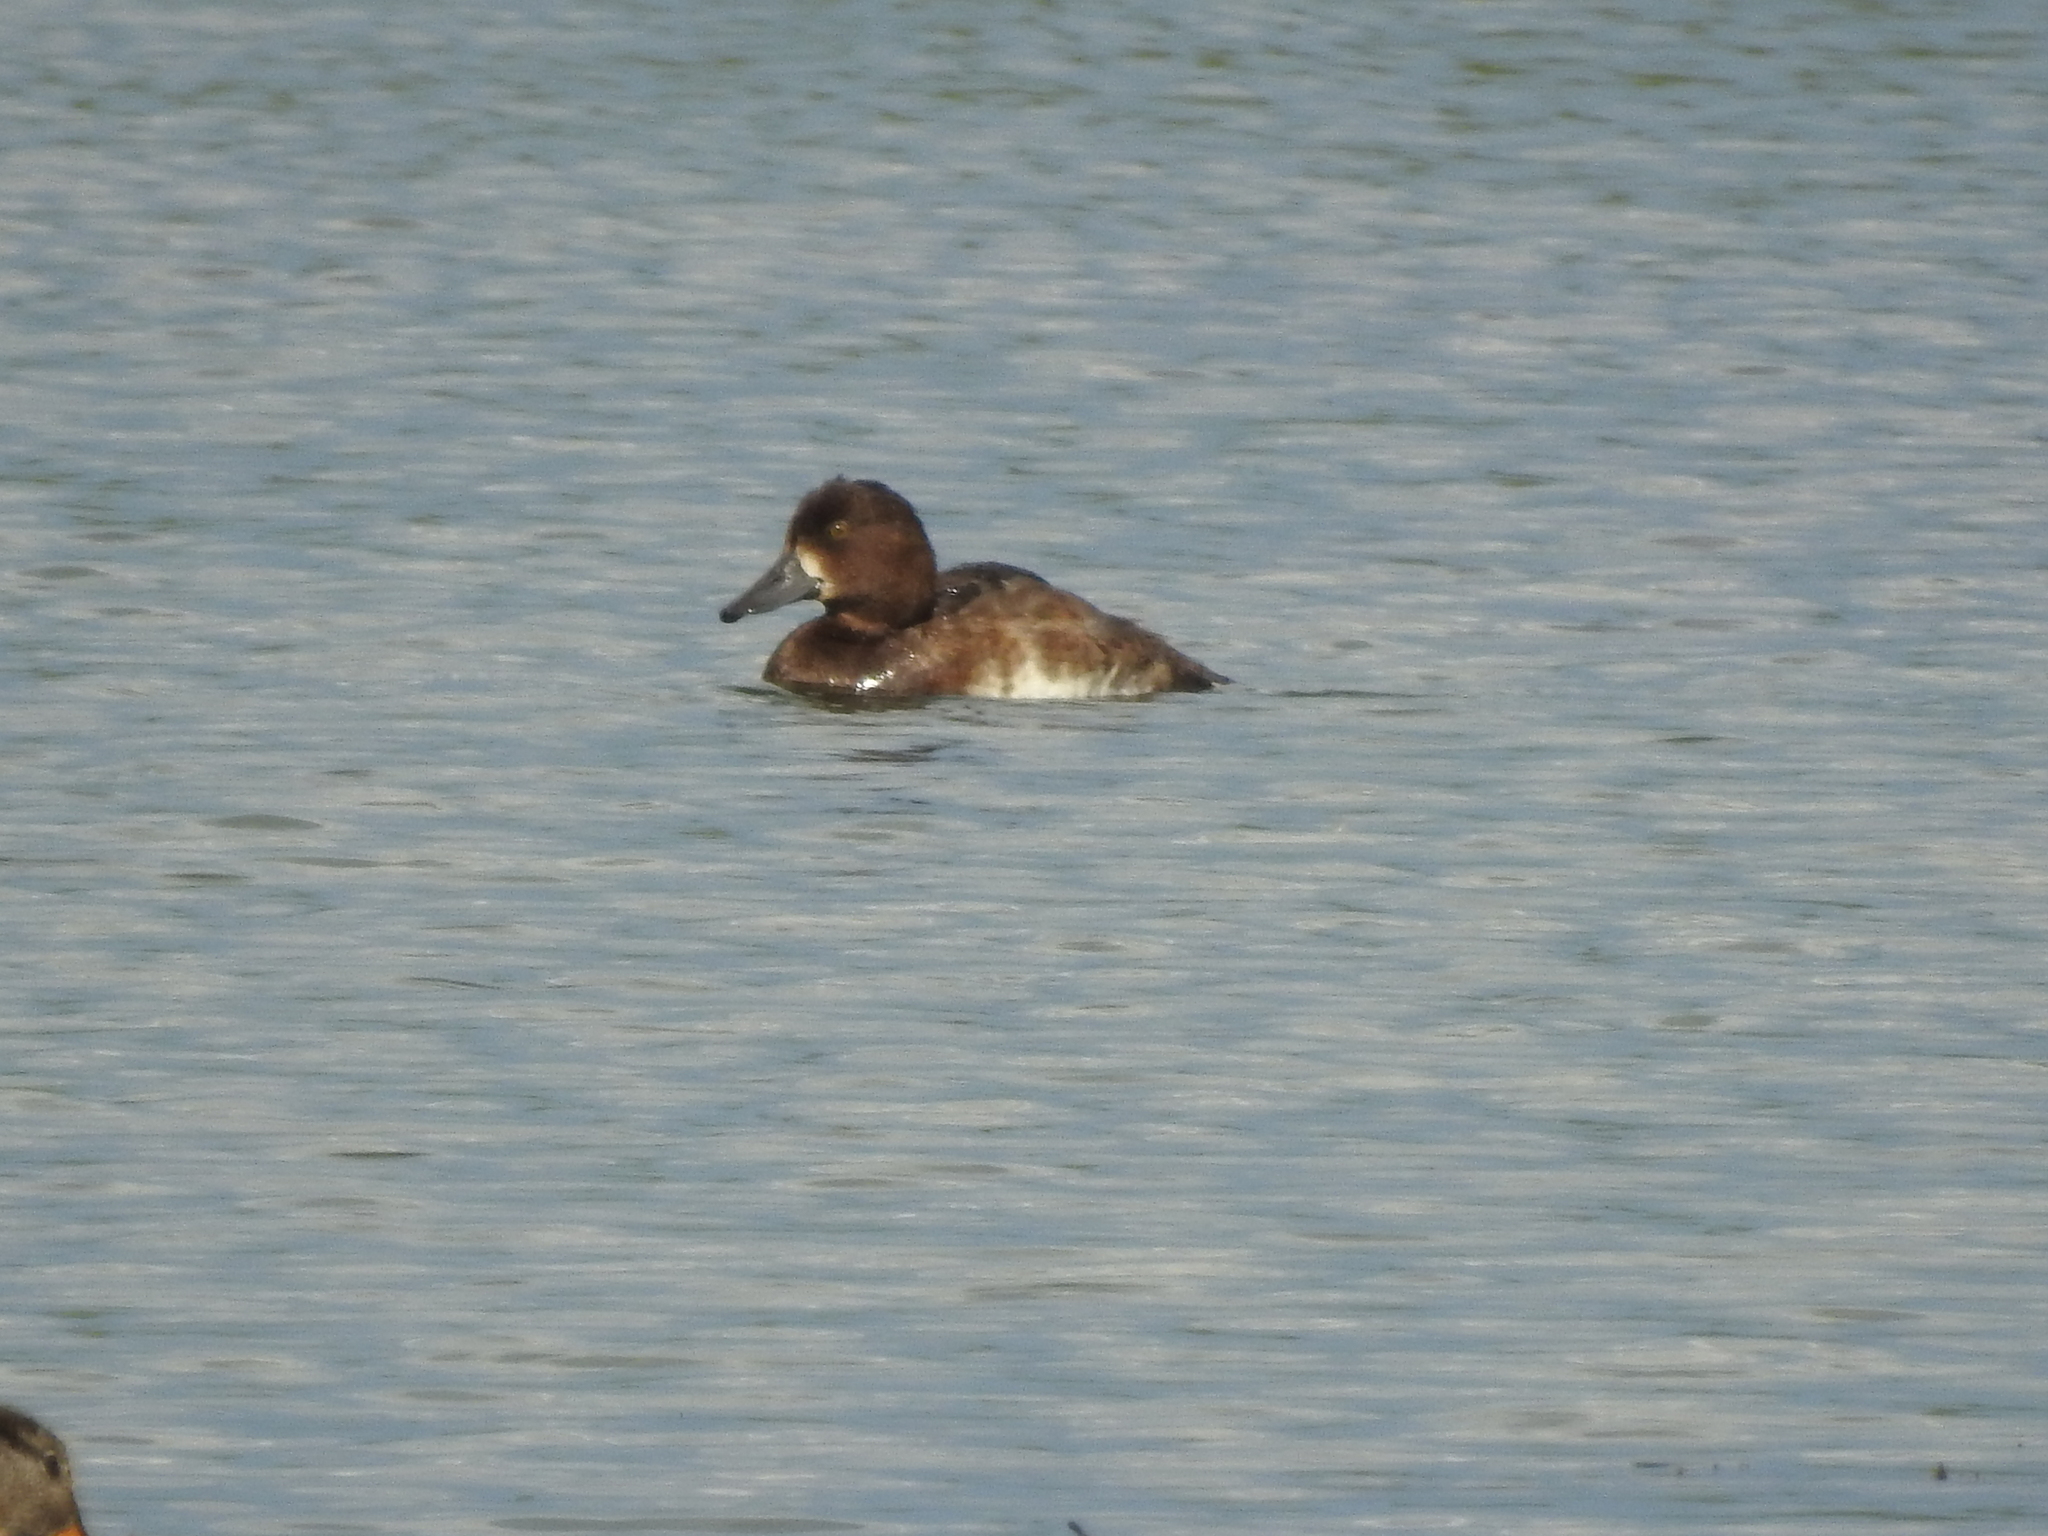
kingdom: Animalia
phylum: Chordata
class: Aves
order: Anseriformes
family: Anatidae
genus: Aythya
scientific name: Aythya fuligula
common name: Tufted duck
